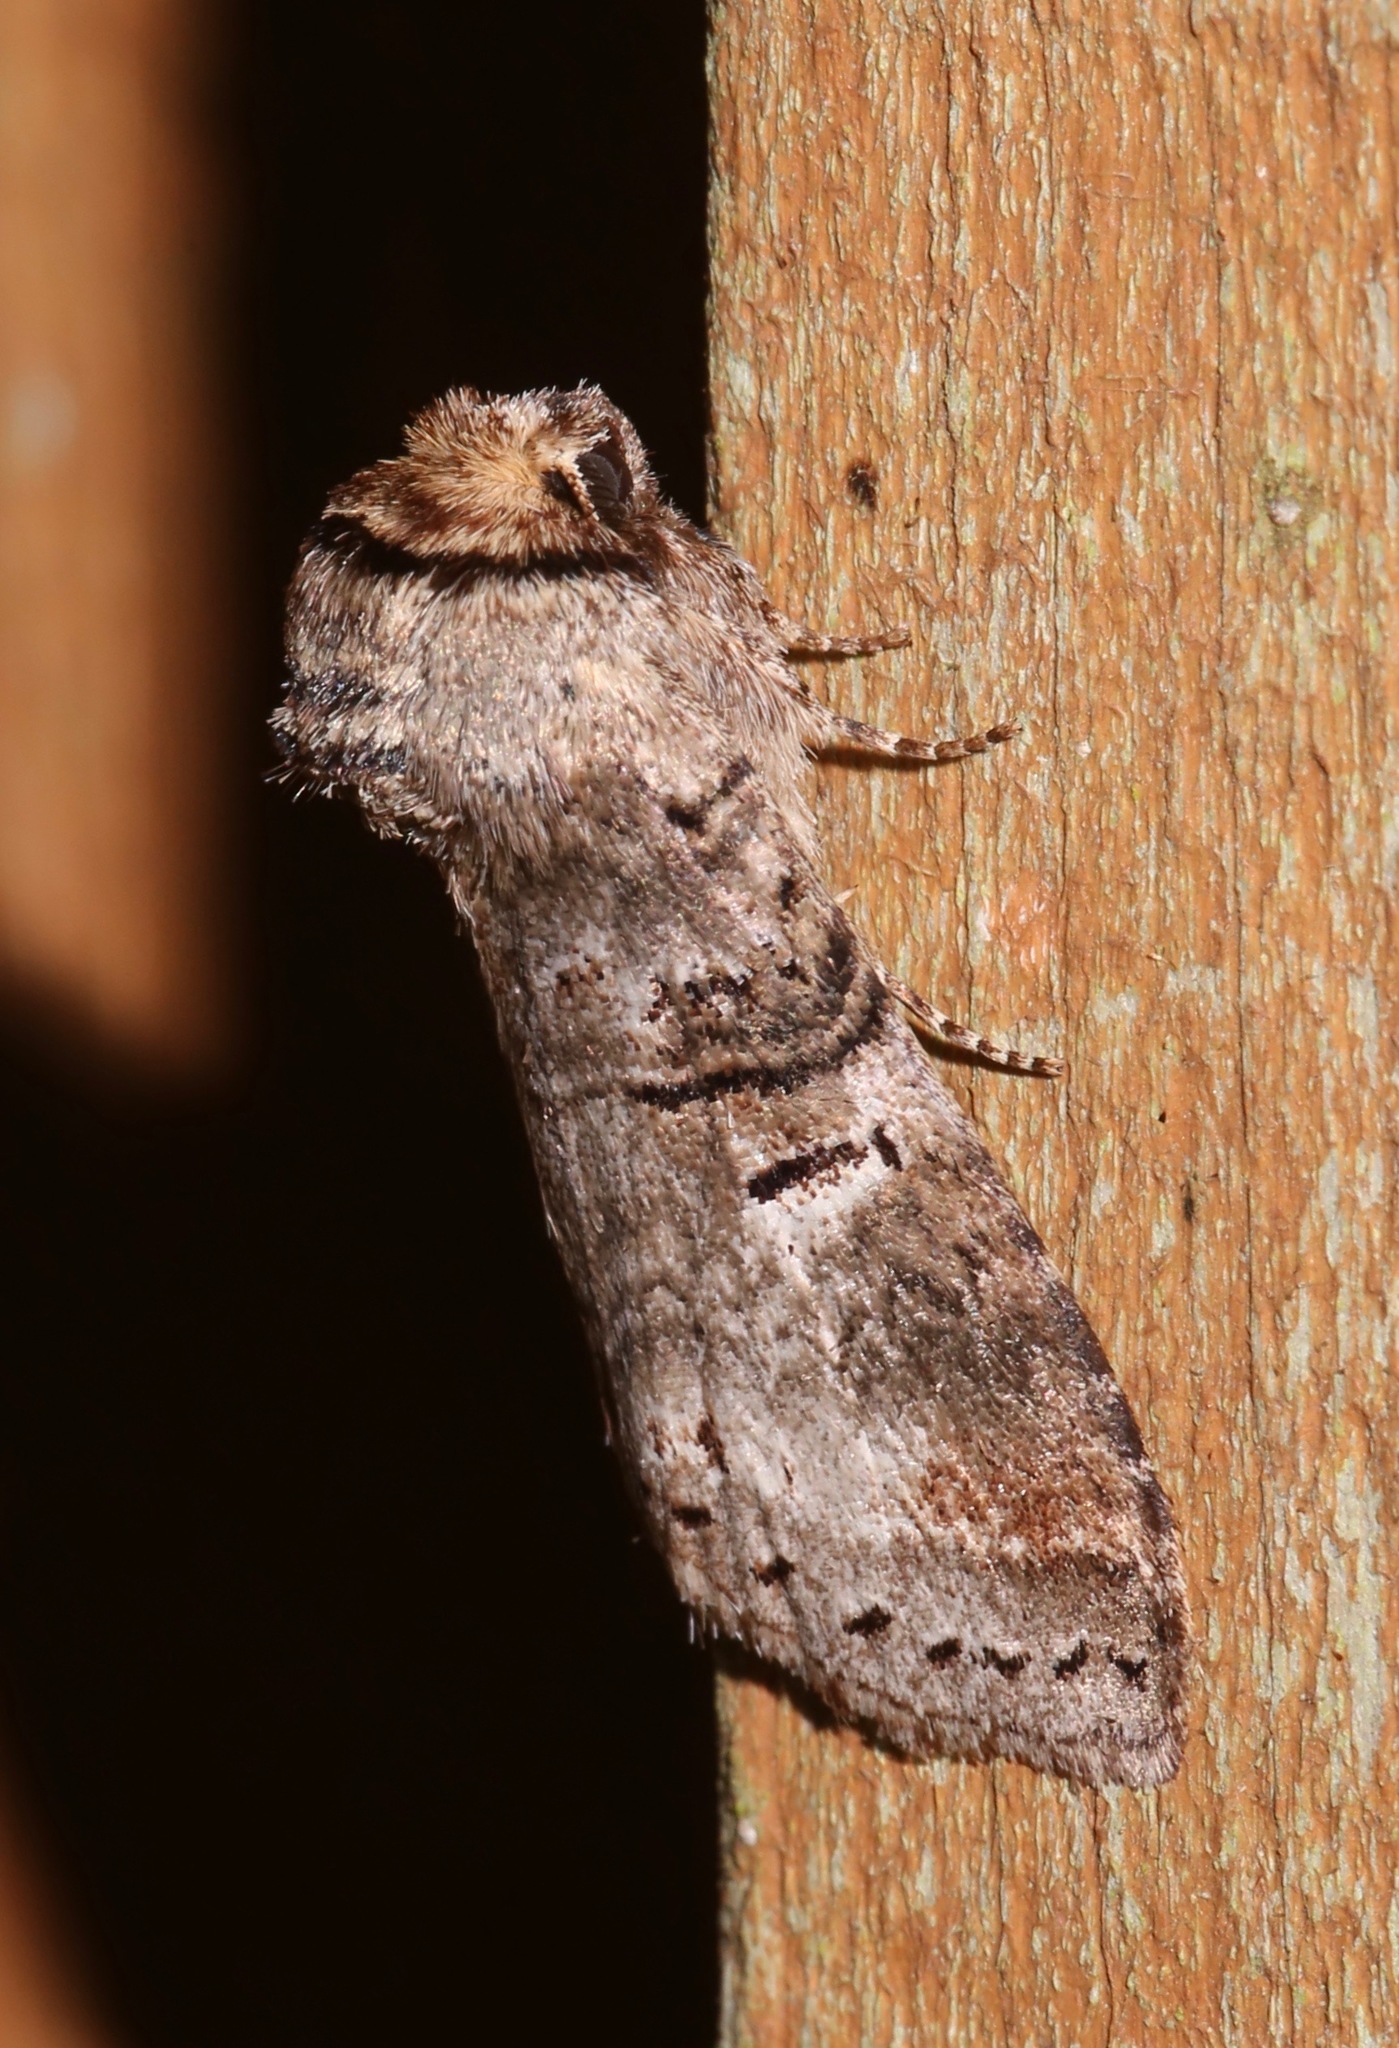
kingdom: Animalia
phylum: Arthropoda
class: Insecta
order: Lepidoptera
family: Notodontidae
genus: Ellida
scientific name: Ellida caniplaga
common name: Linden prominent
